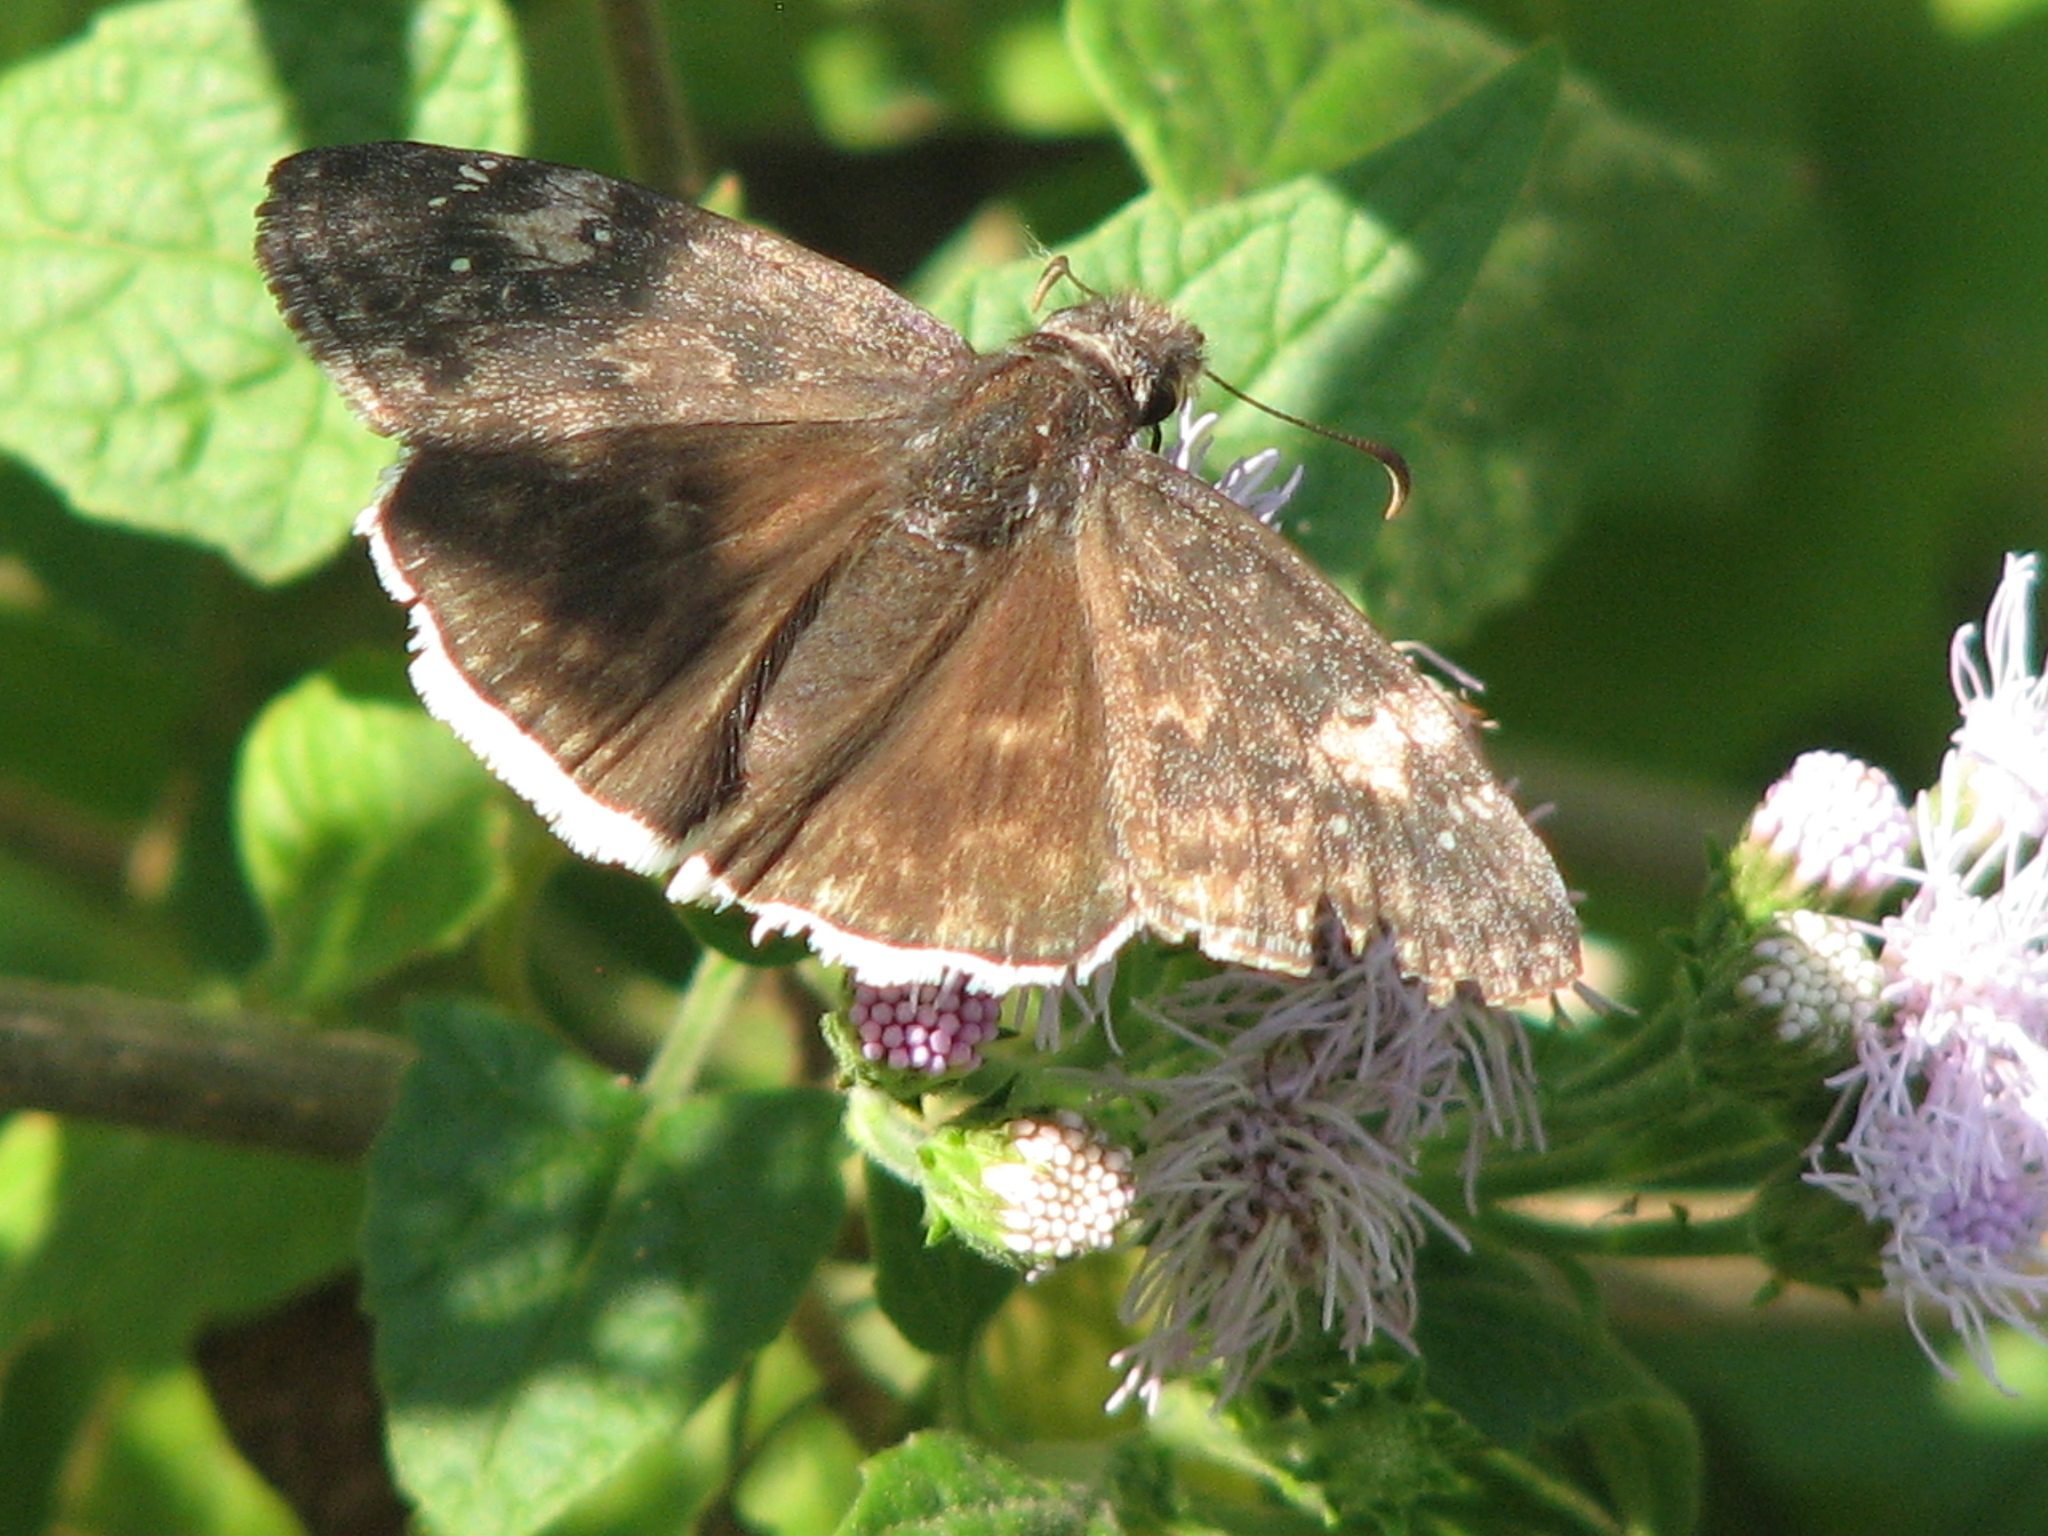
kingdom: Animalia
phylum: Arthropoda
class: Insecta
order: Lepidoptera
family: Hesperiidae
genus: Erynnis
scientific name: Erynnis funeralis
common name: Funereal duskywing
